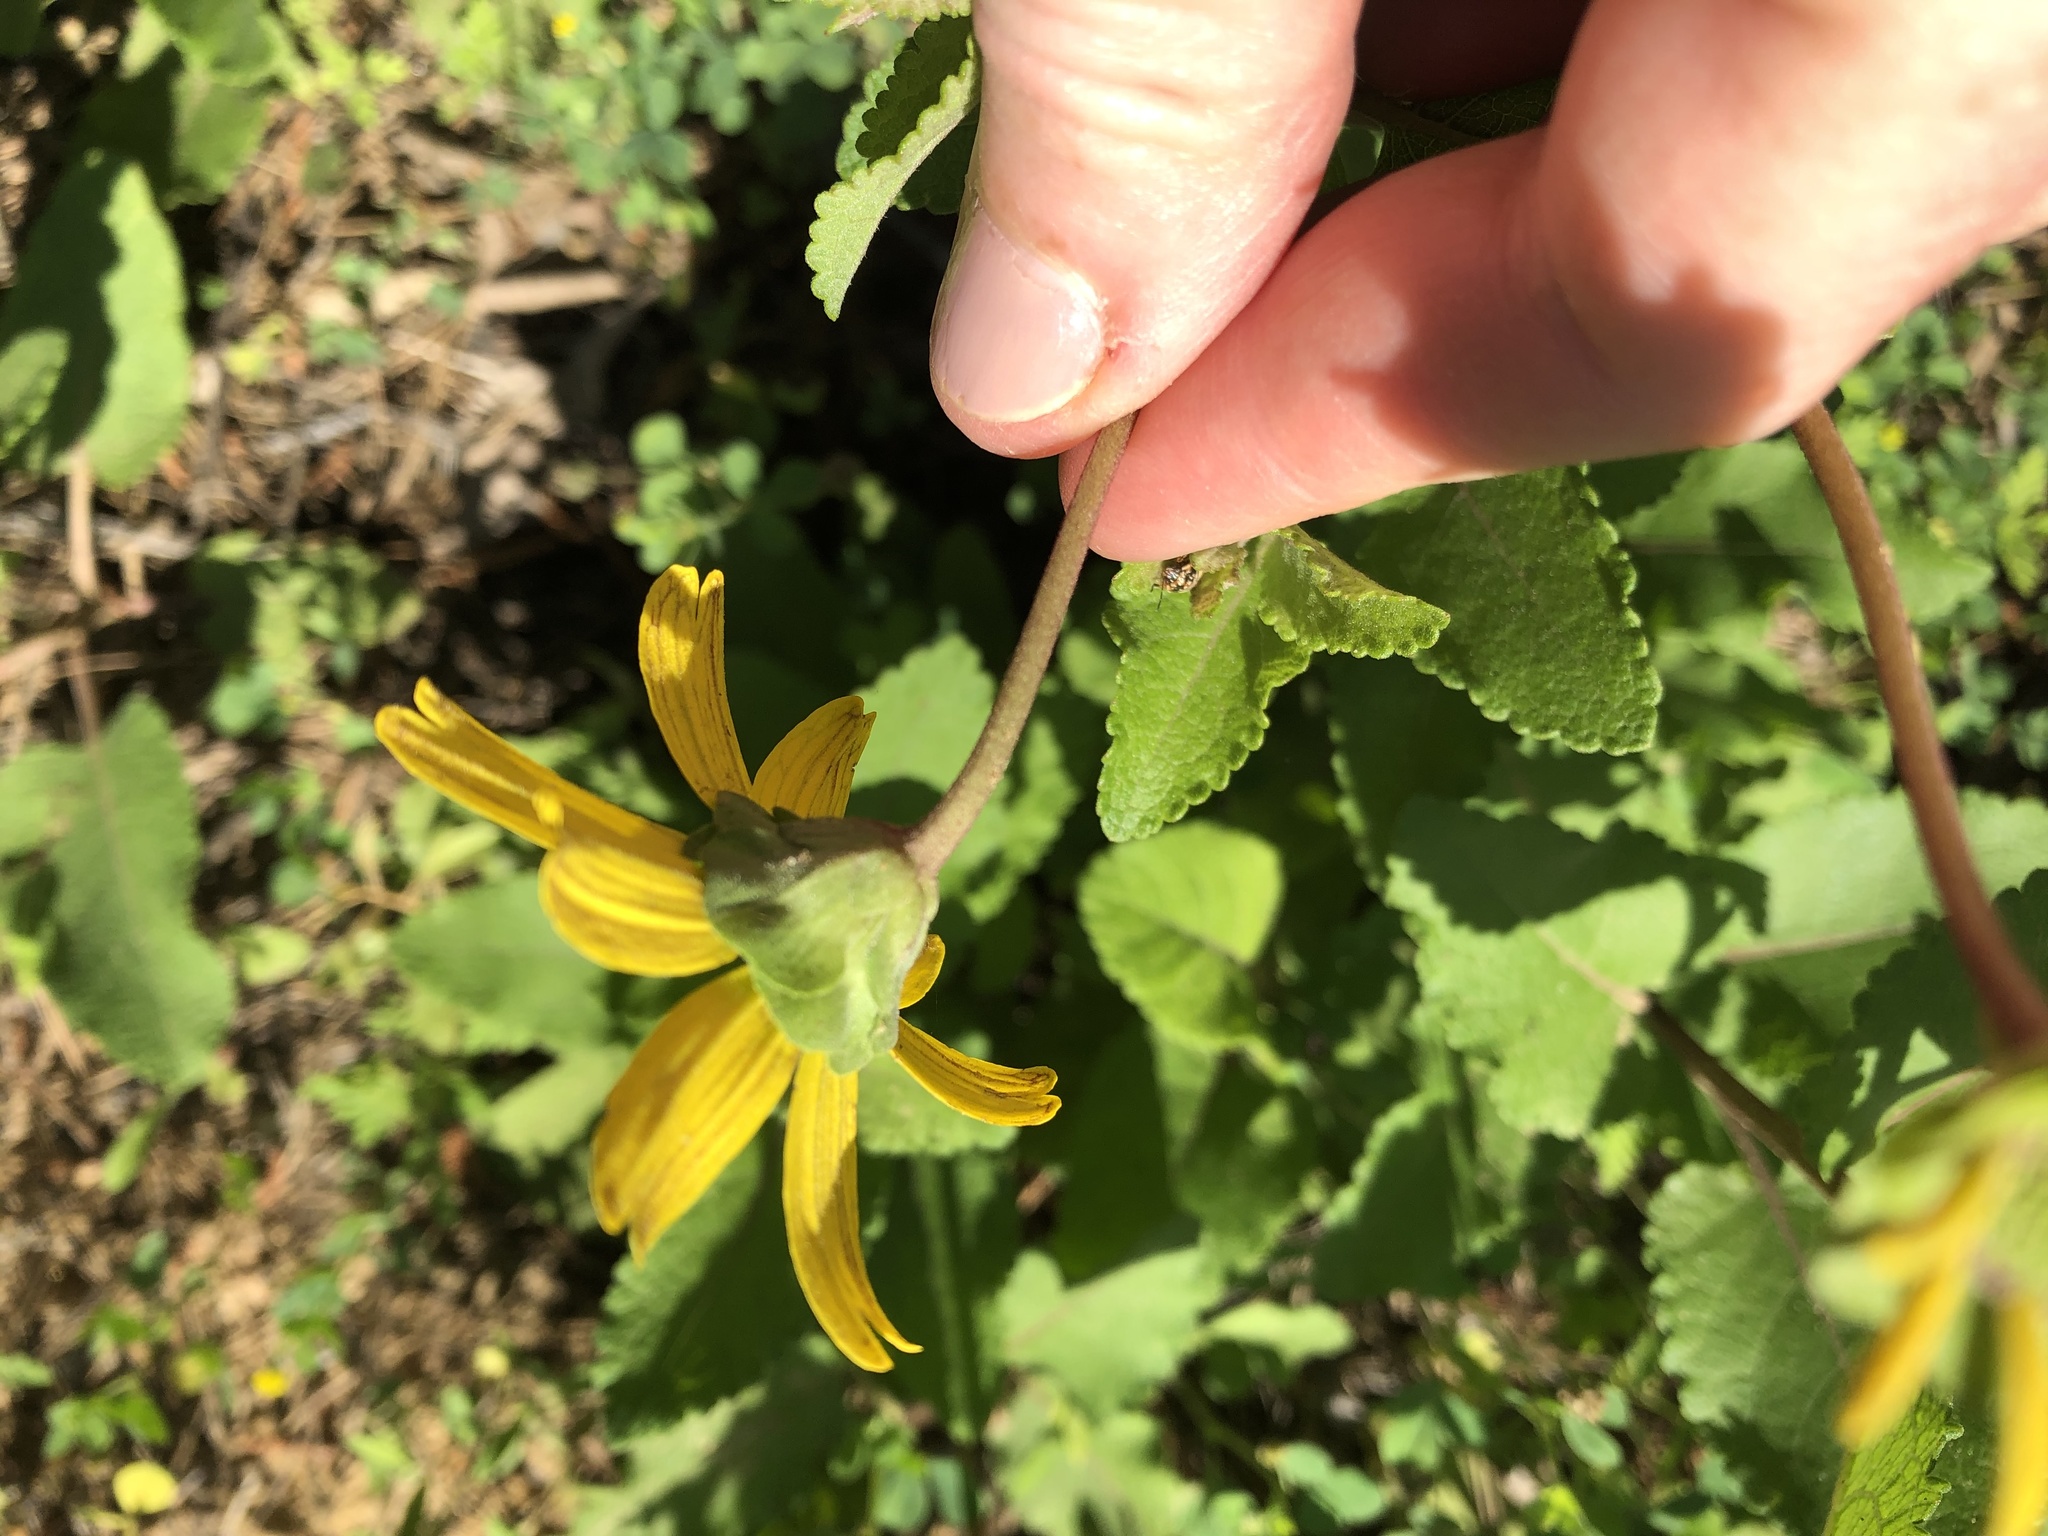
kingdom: Plantae
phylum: Tracheophyta
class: Magnoliopsida
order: Asterales
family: Asteraceae
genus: Berlandiera
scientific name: Berlandiera pumila
